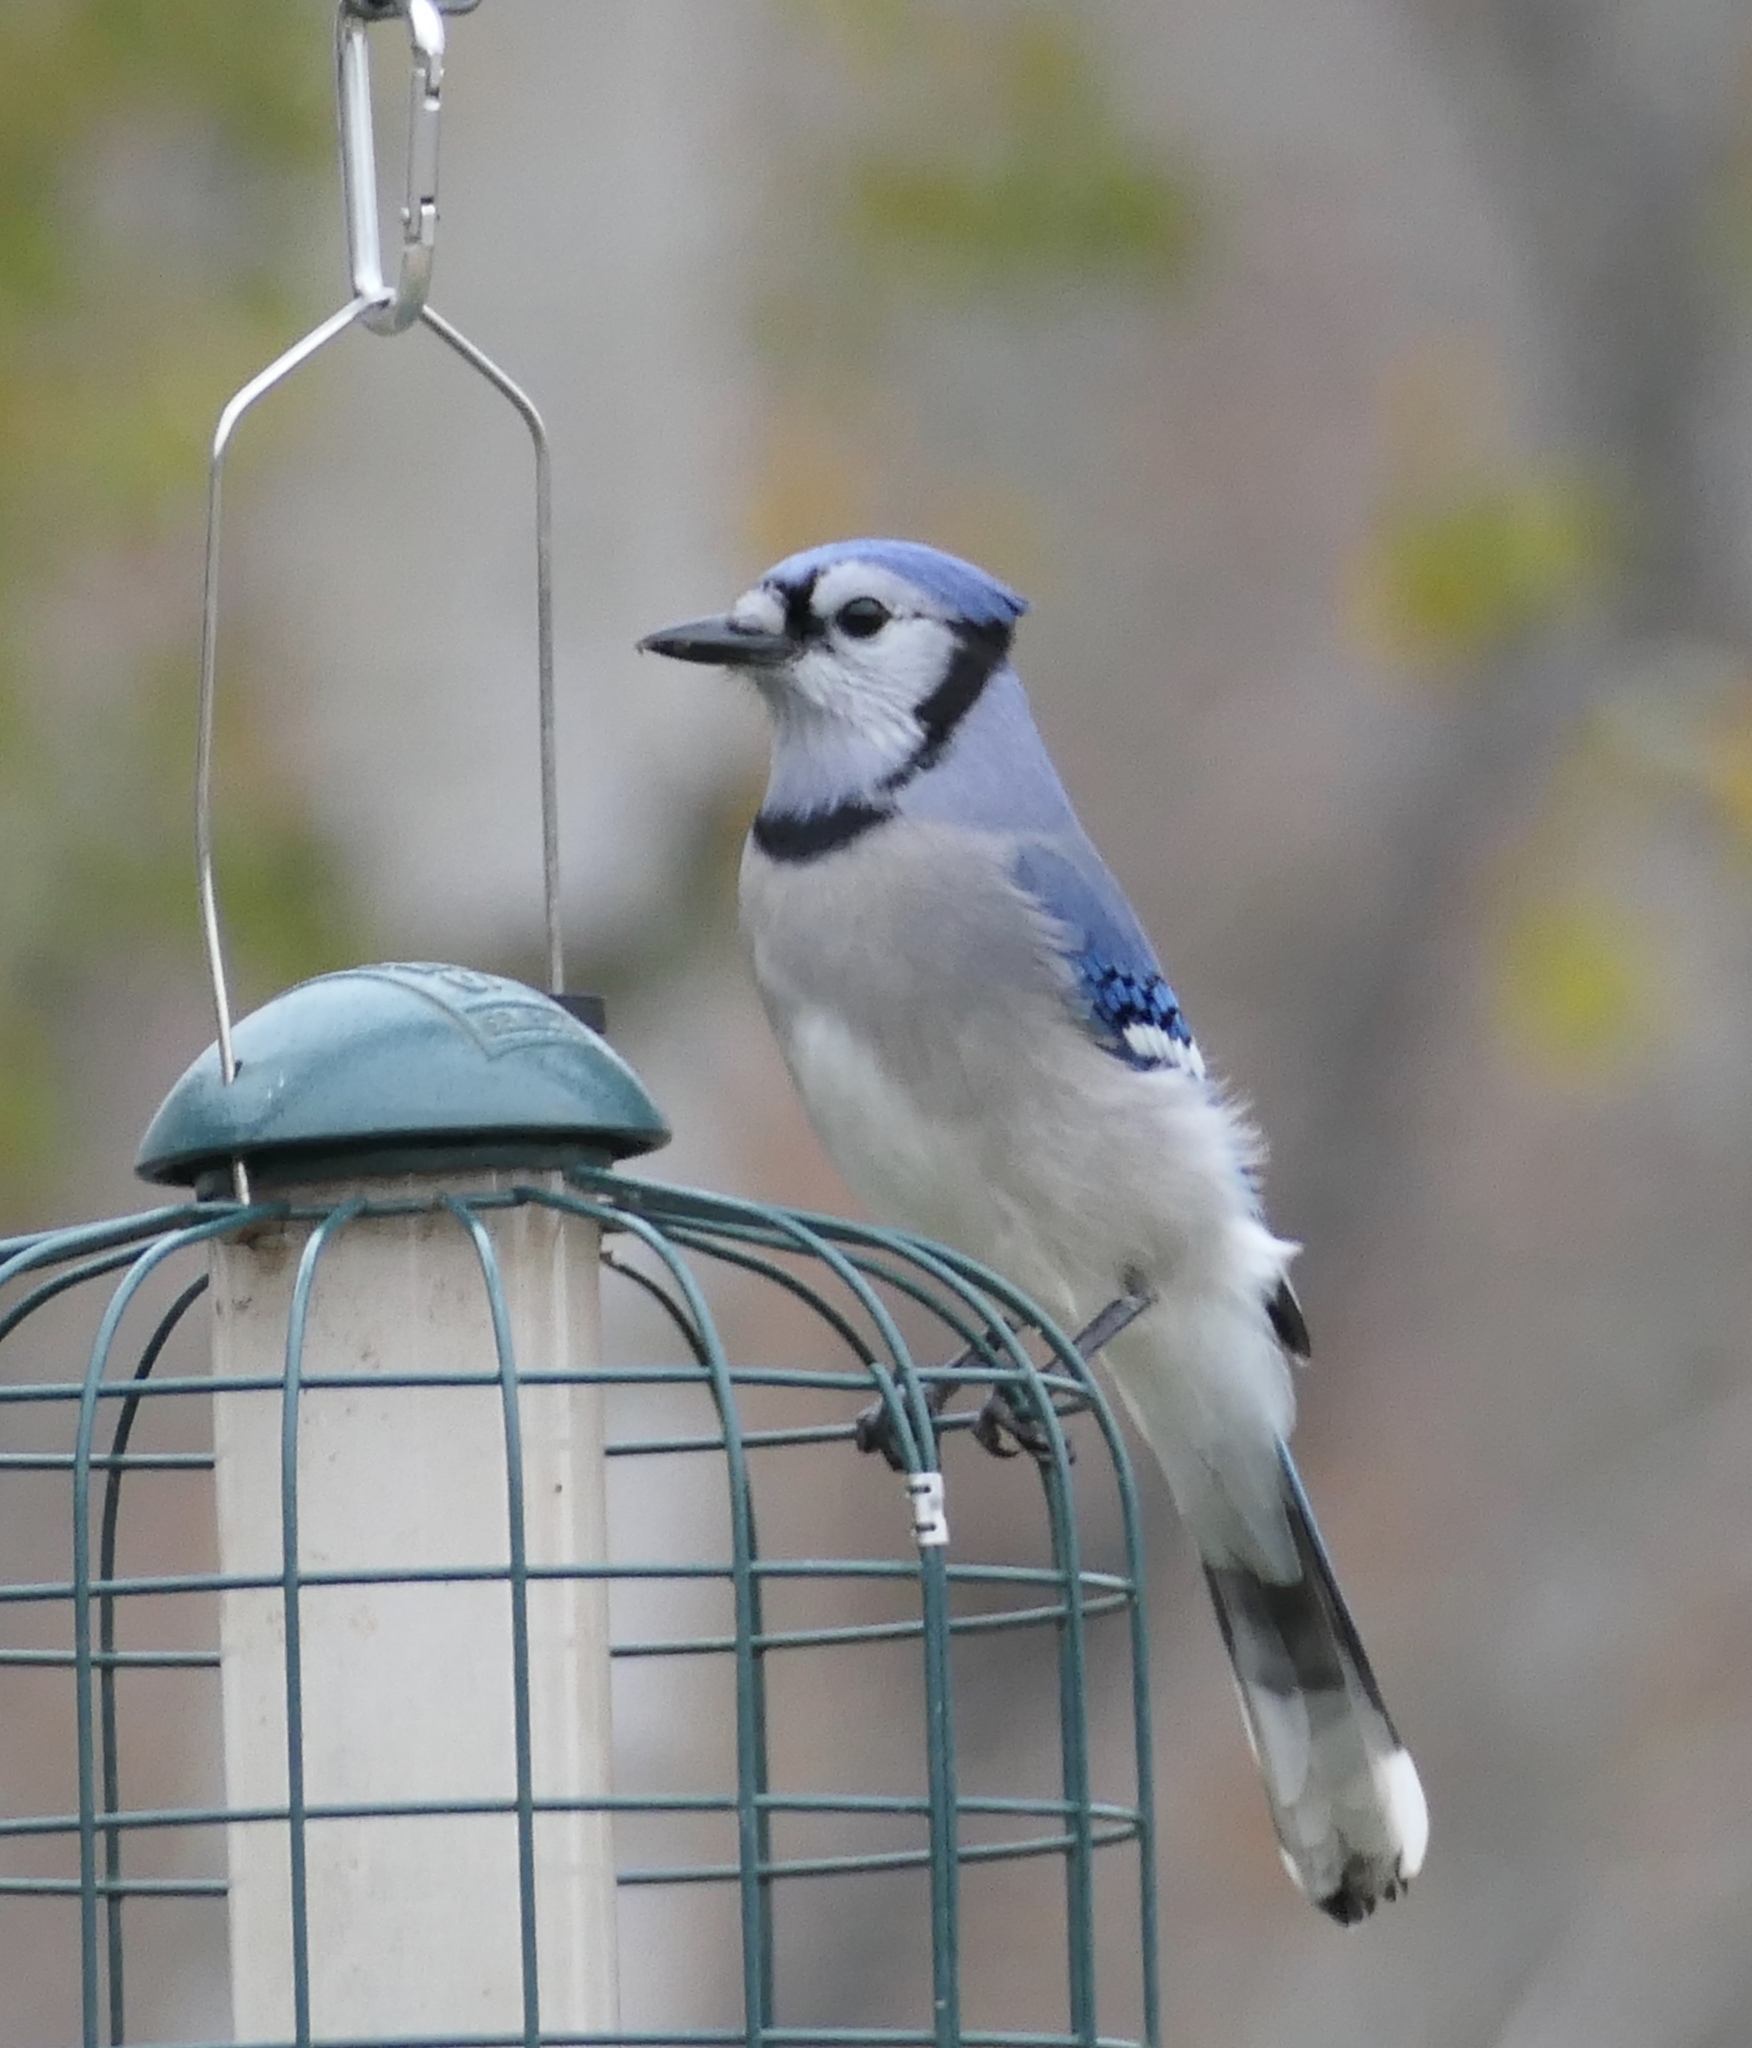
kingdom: Animalia
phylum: Chordata
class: Aves
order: Passeriformes
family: Corvidae
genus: Cyanocitta
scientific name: Cyanocitta cristata
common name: Blue jay
